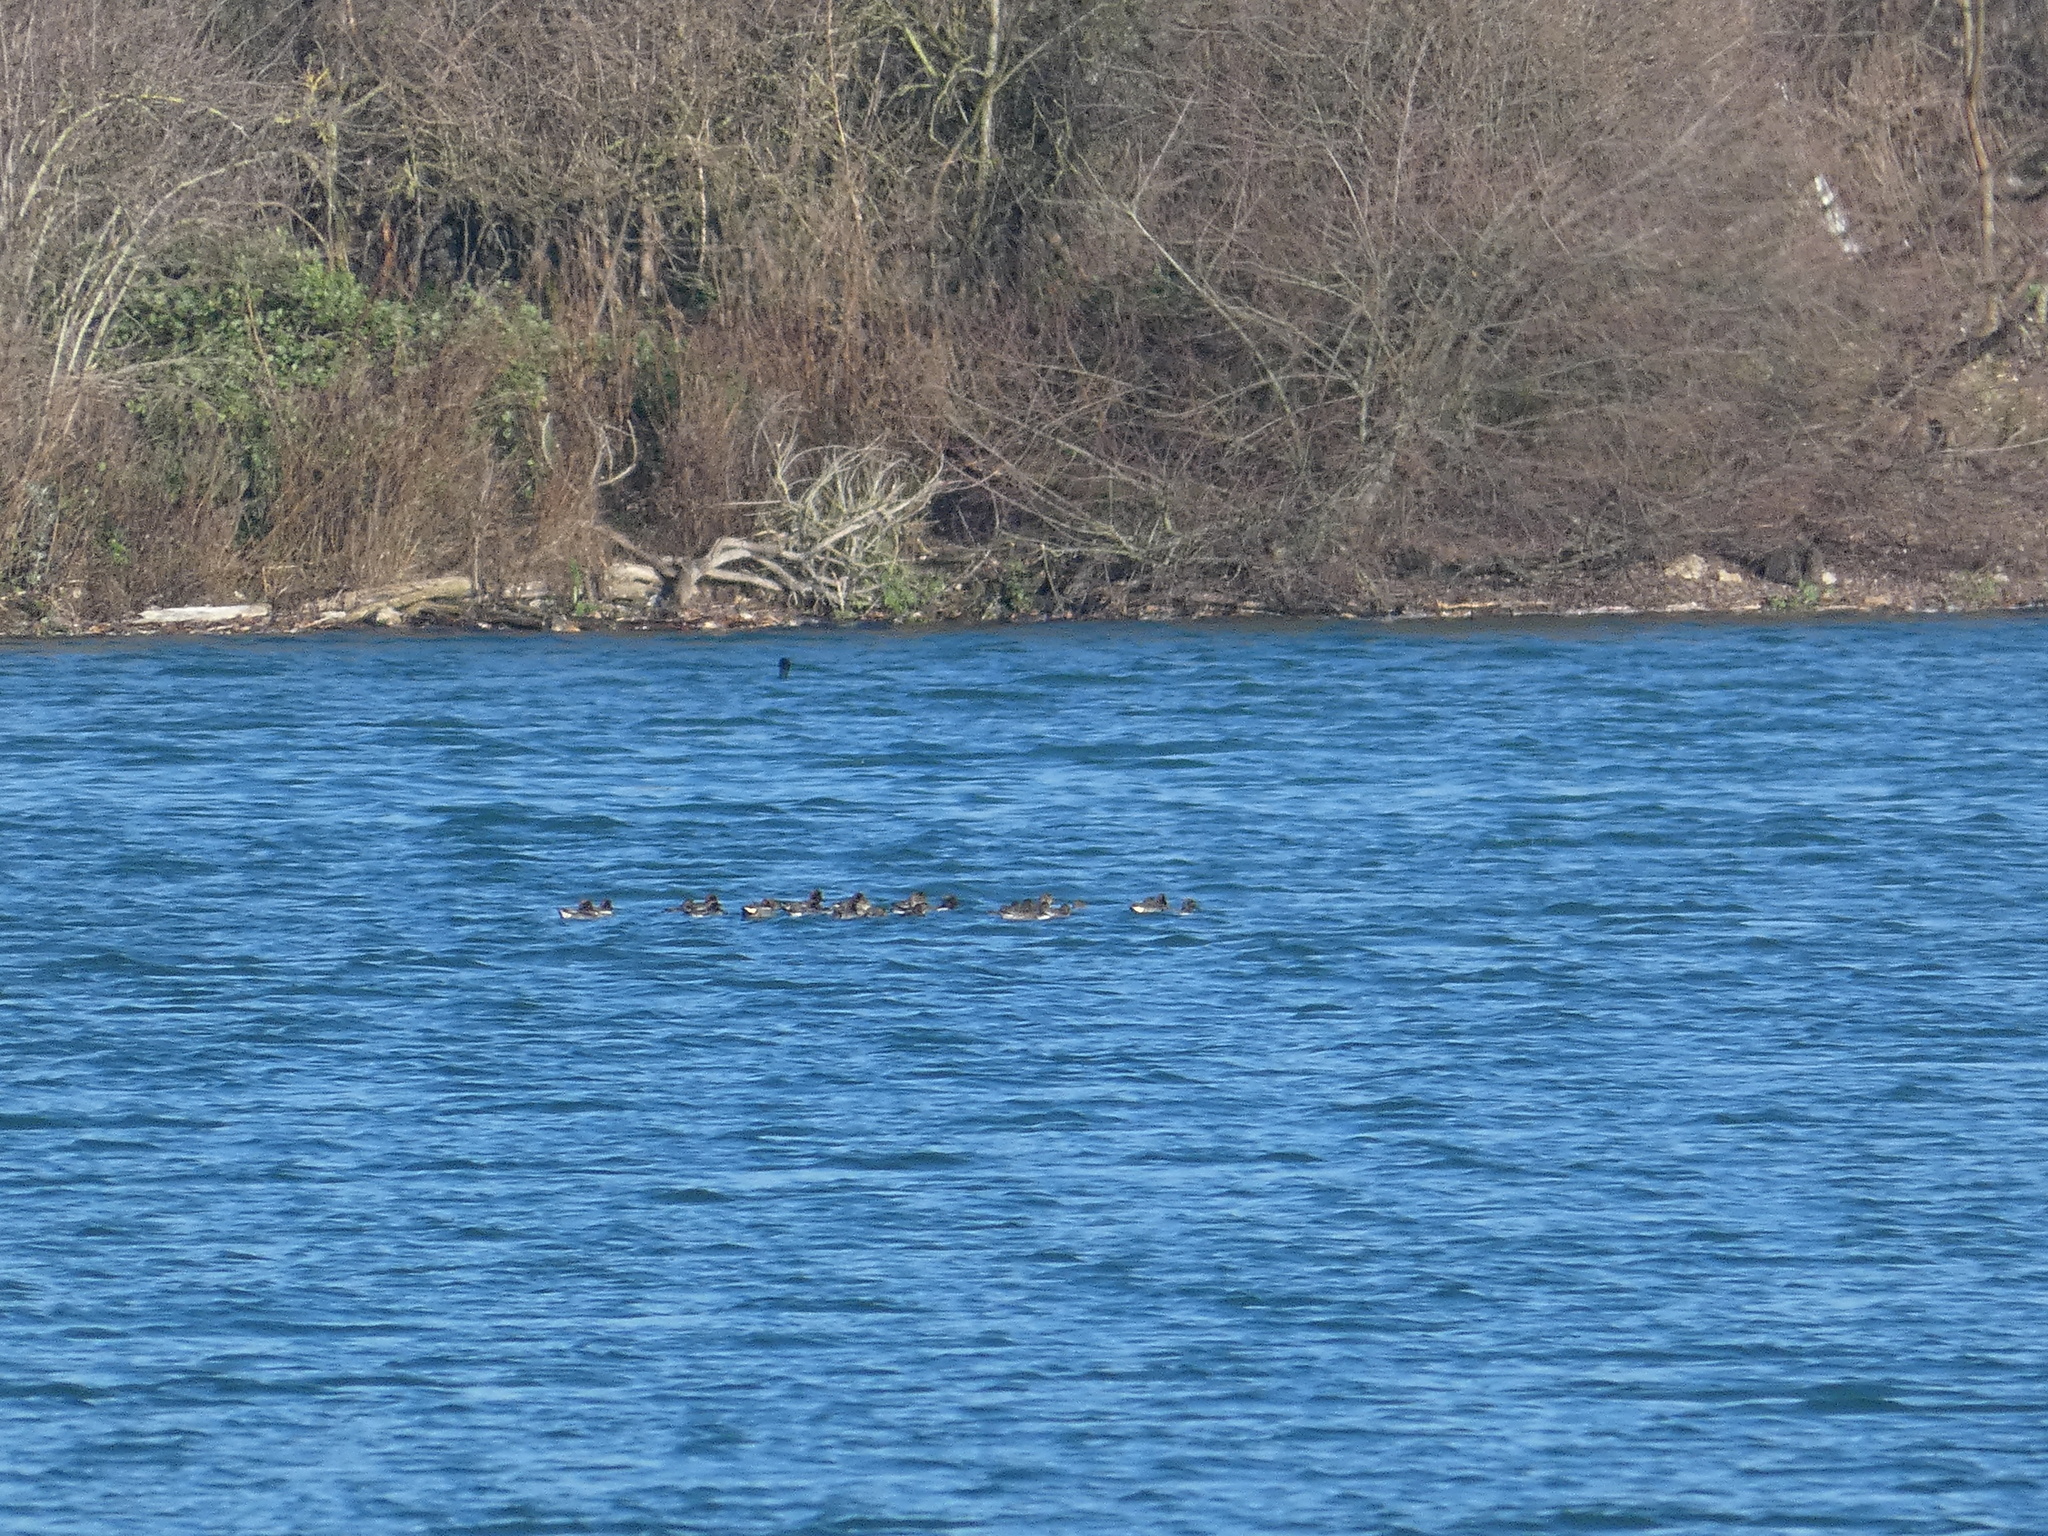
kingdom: Animalia
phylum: Chordata
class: Aves
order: Anseriformes
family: Anatidae
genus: Anas
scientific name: Anas crecca
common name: Eurasian teal
